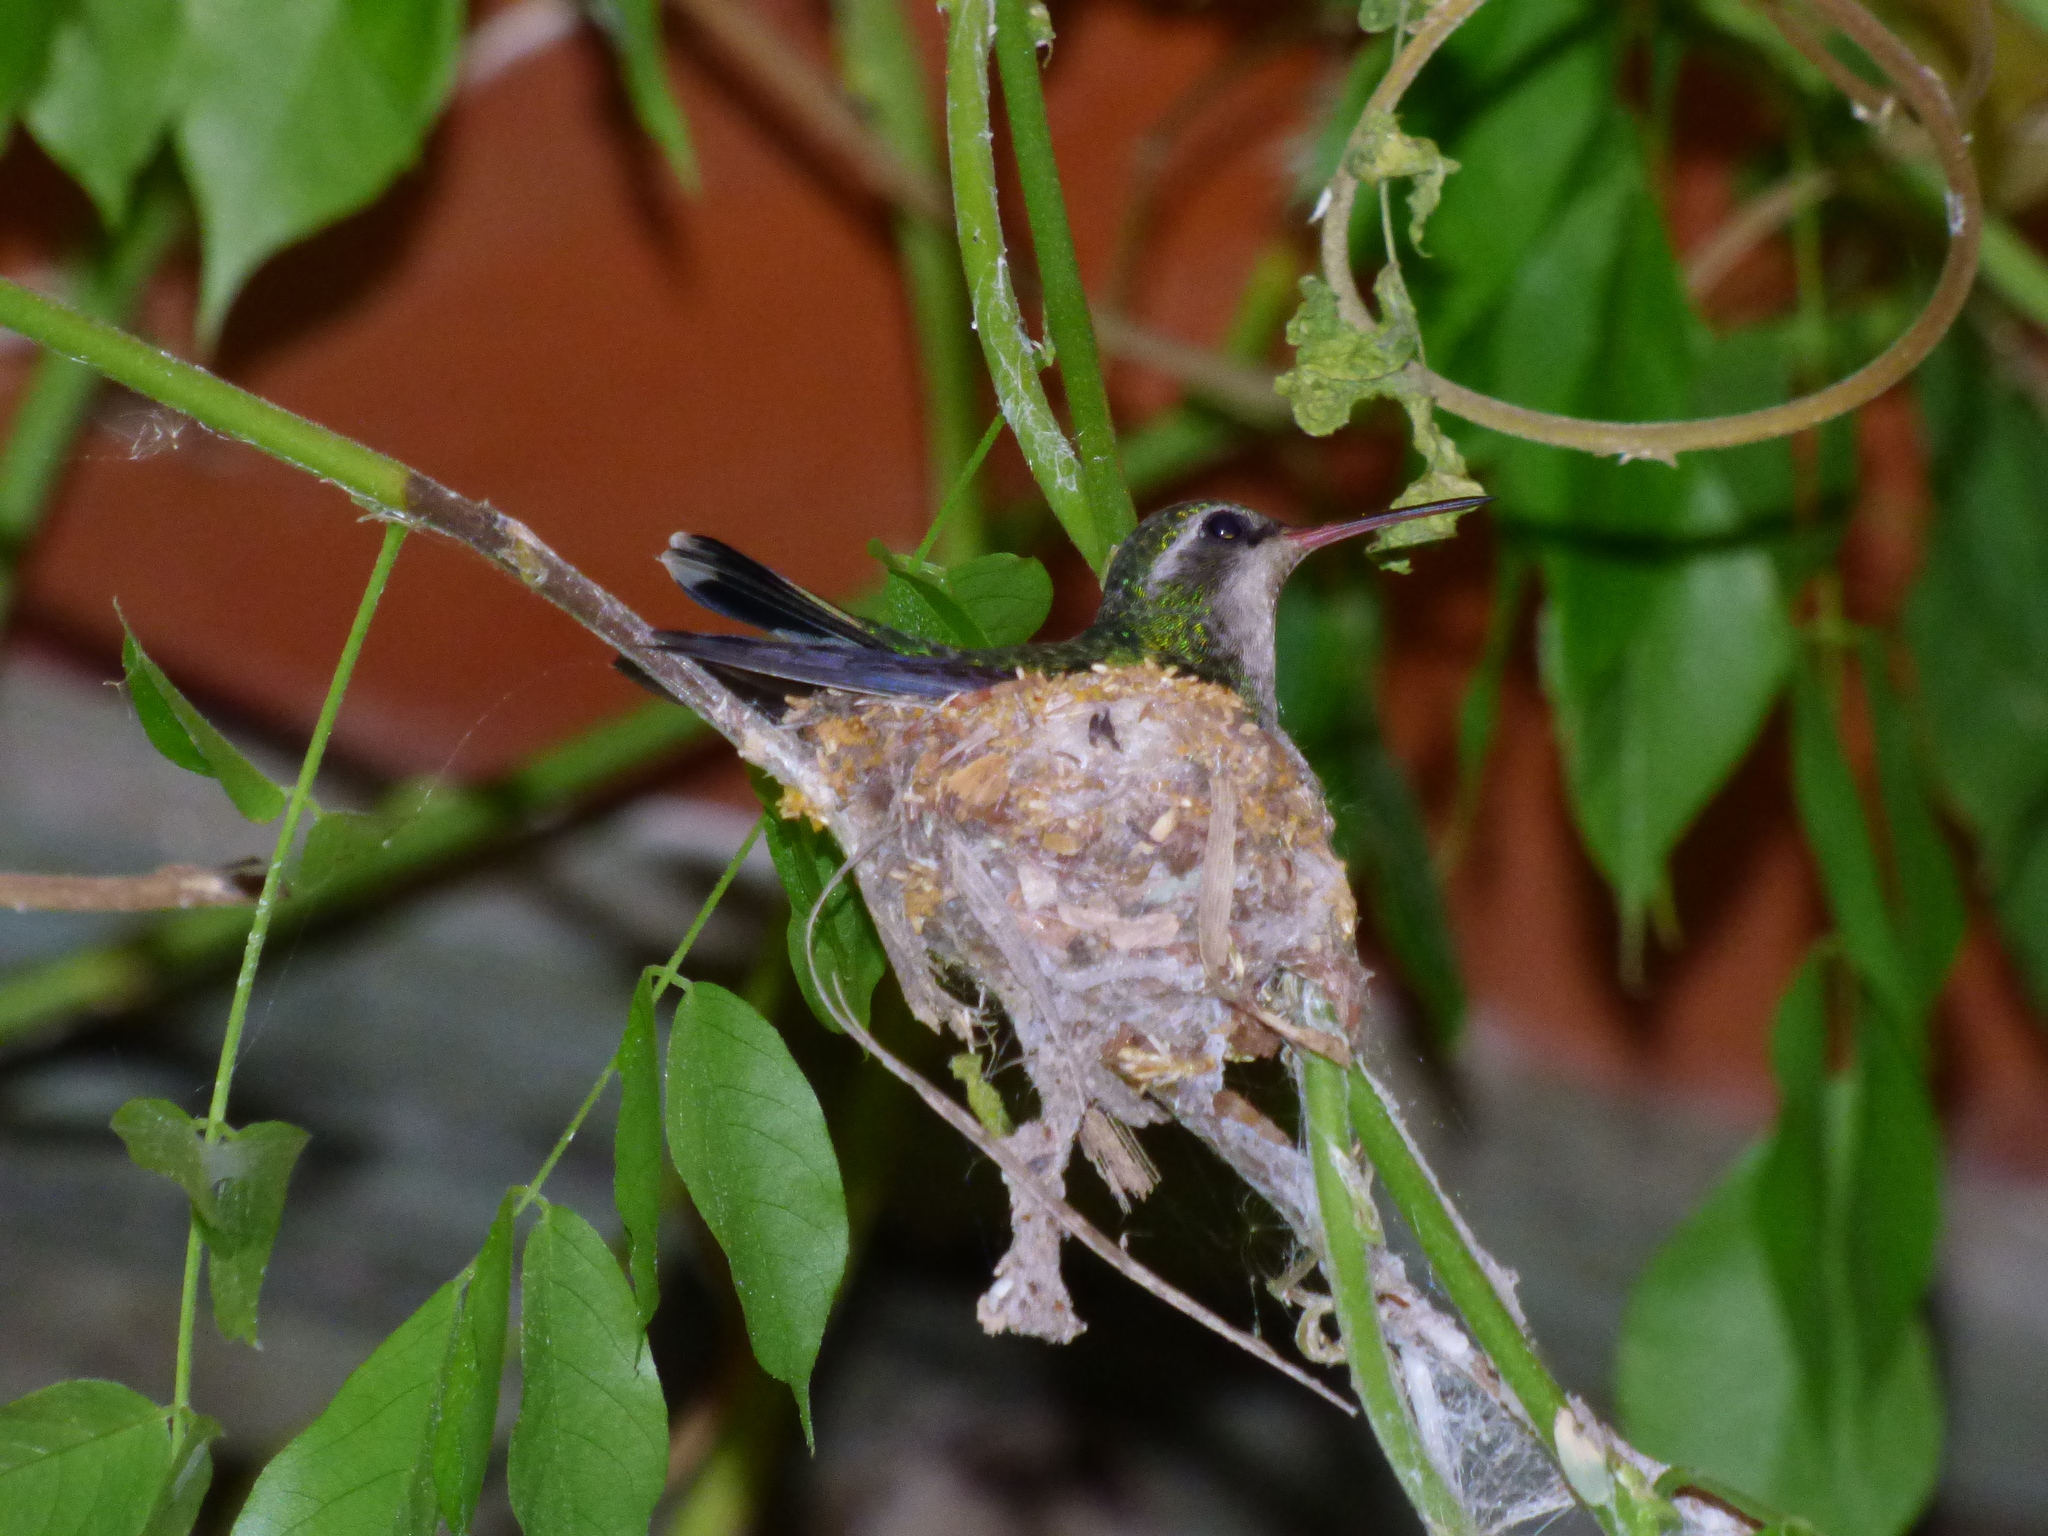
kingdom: Animalia
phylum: Chordata
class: Aves
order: Apodiformes
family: Trochilidae
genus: Chlorostilbon
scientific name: Chlorostilbon lucidus
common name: Glittering-bellied emerald
